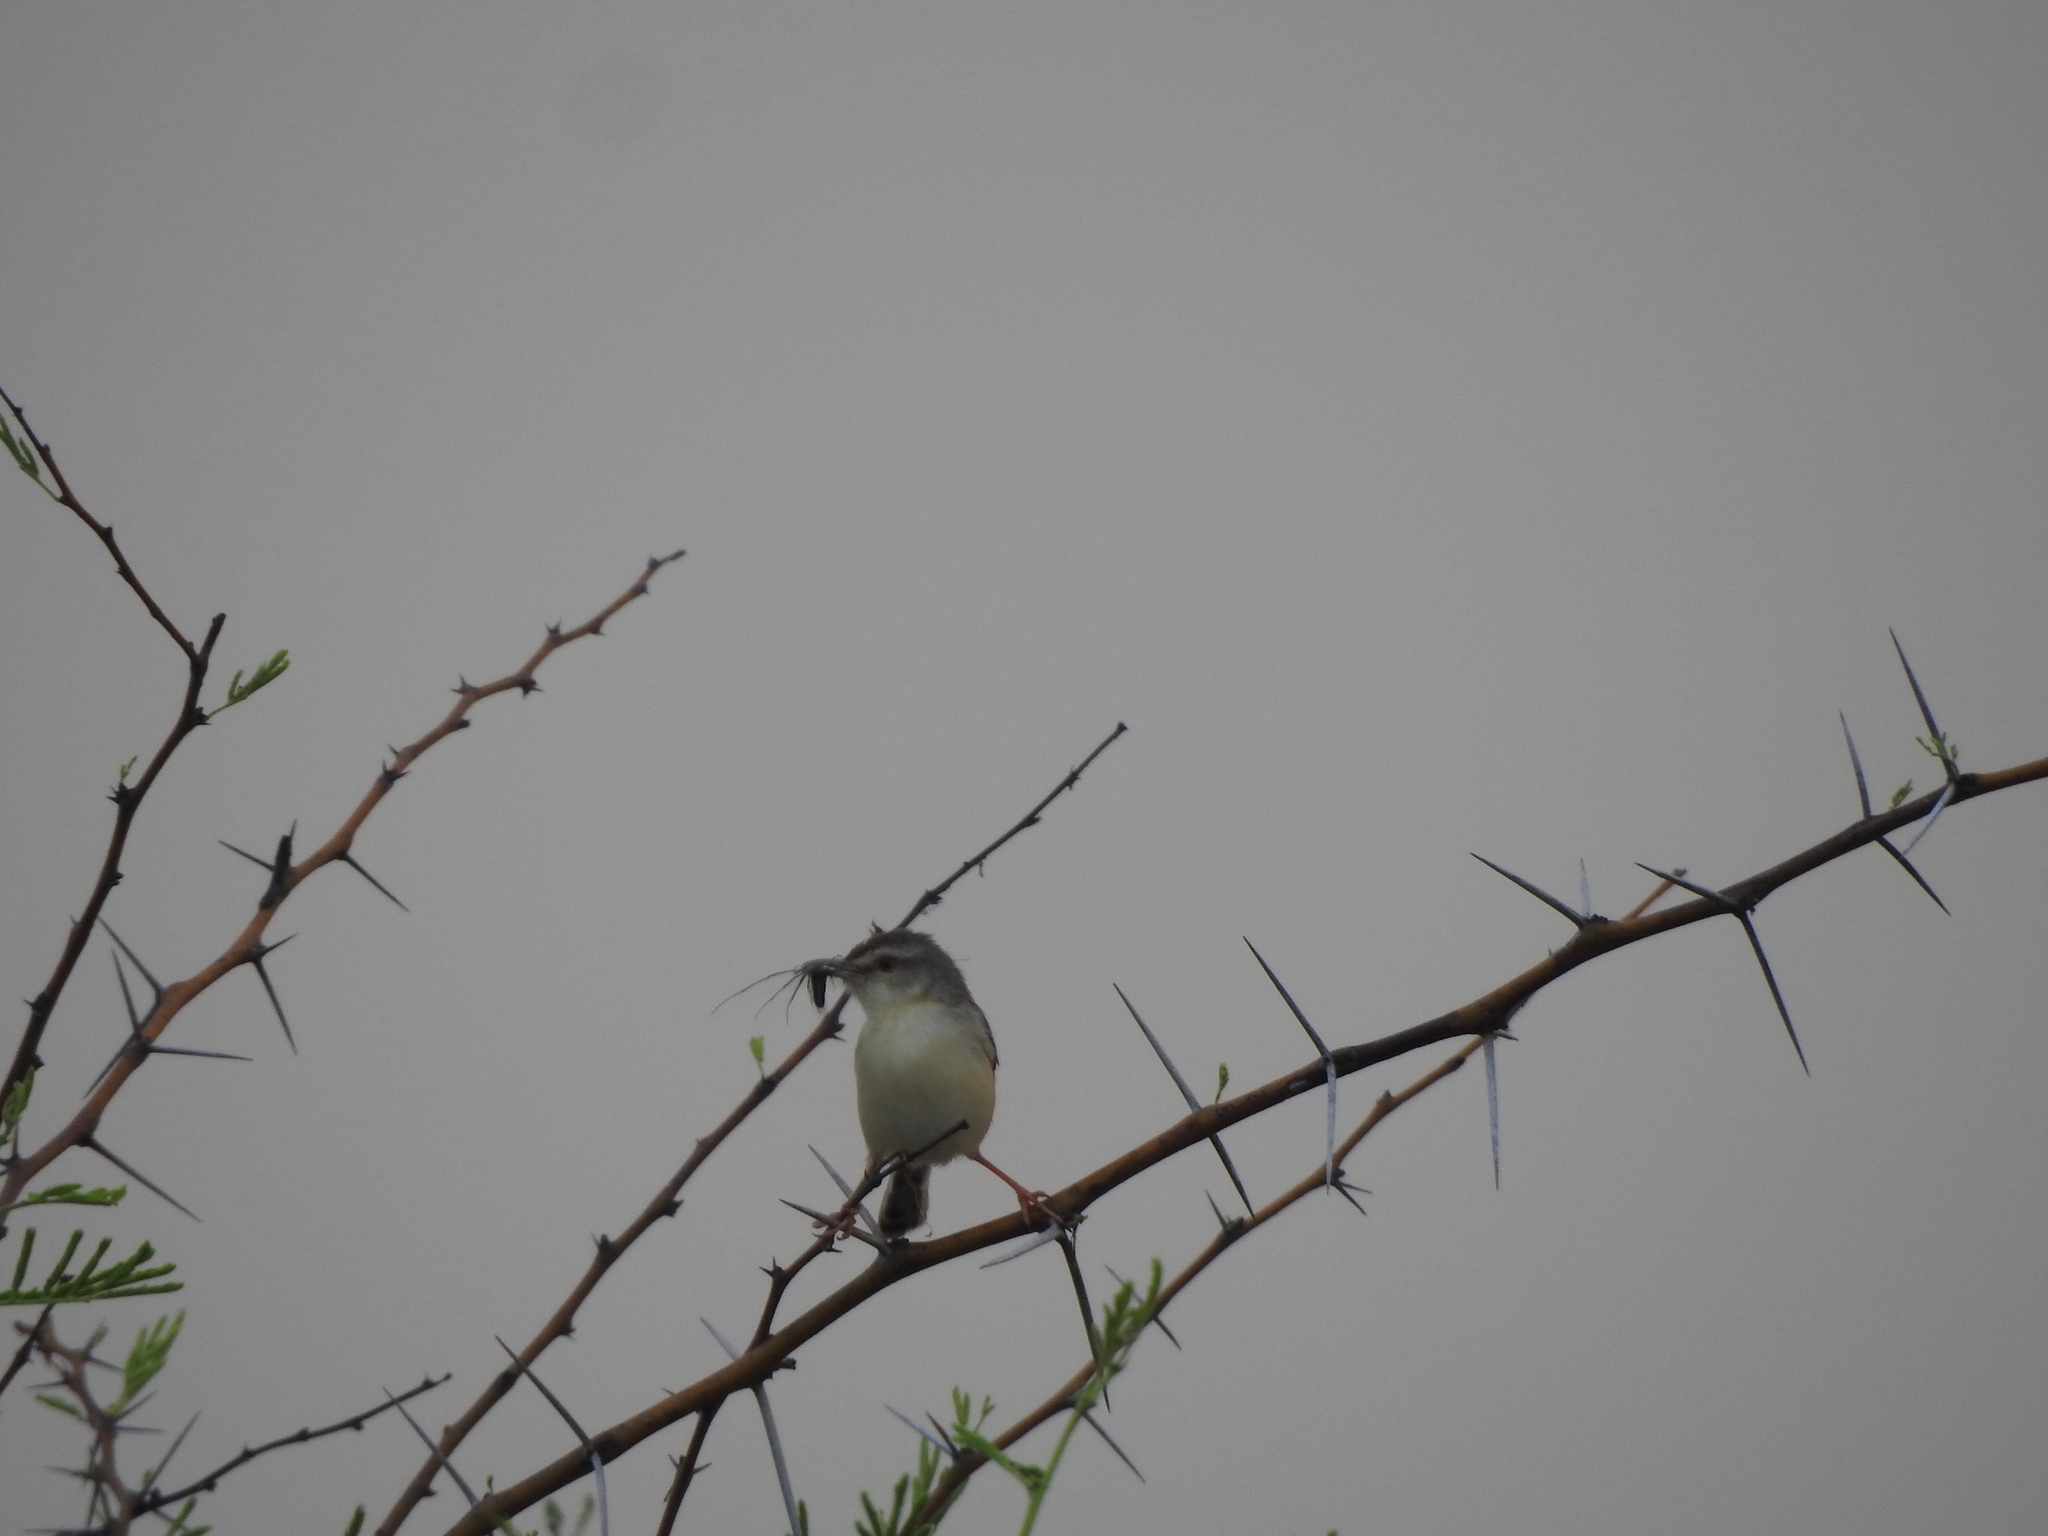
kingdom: Animalia
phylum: Chordata
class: Aves
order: Passeriformes
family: Cisticolidae
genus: Prinia
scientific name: Prinia inornata
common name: Plain prinia
